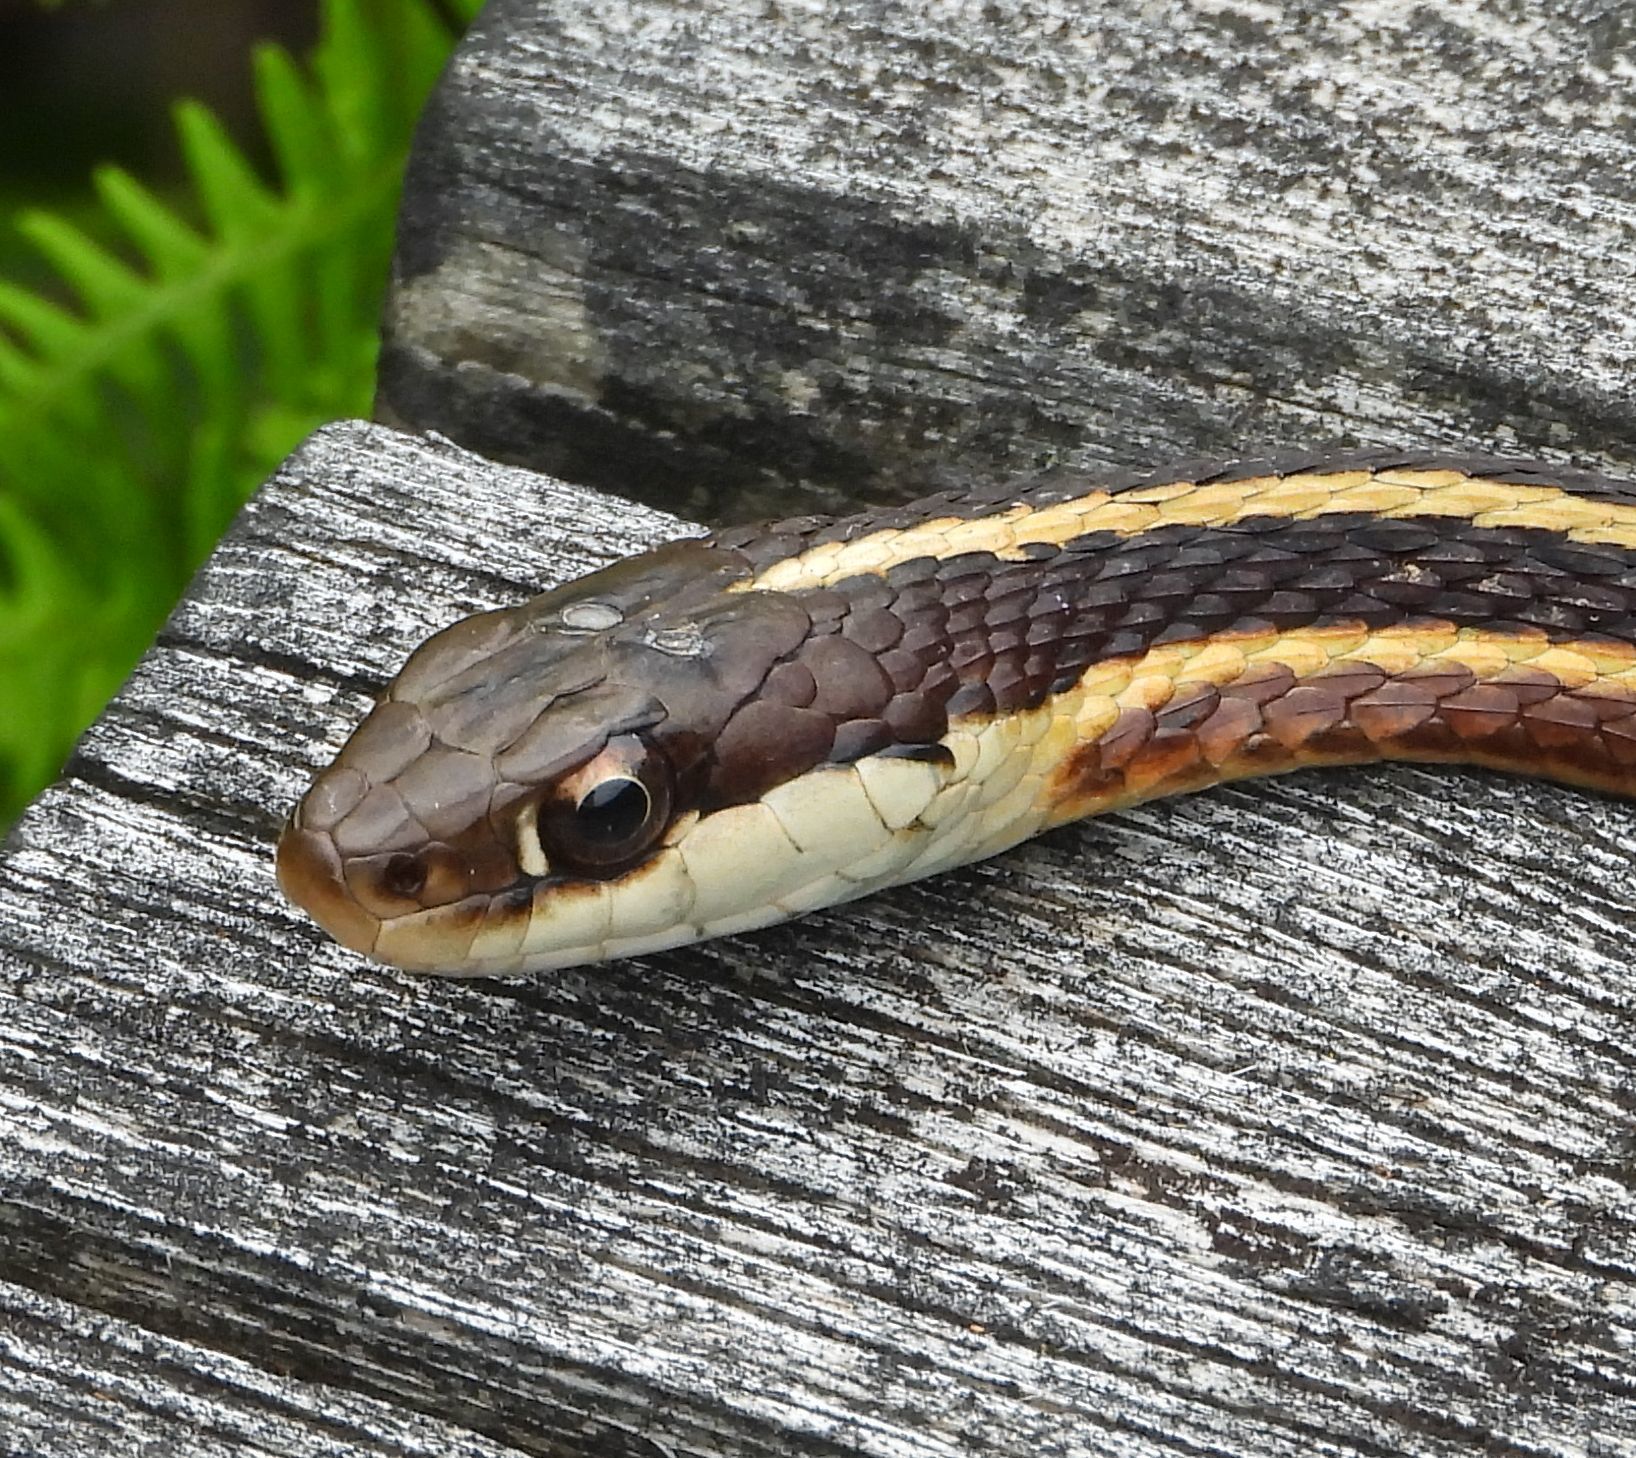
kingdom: Animalia
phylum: Chordata
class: Squamata
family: Colubridae
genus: Thamnophis
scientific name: Thamnophis saurita
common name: Eastern ribbonsnake
